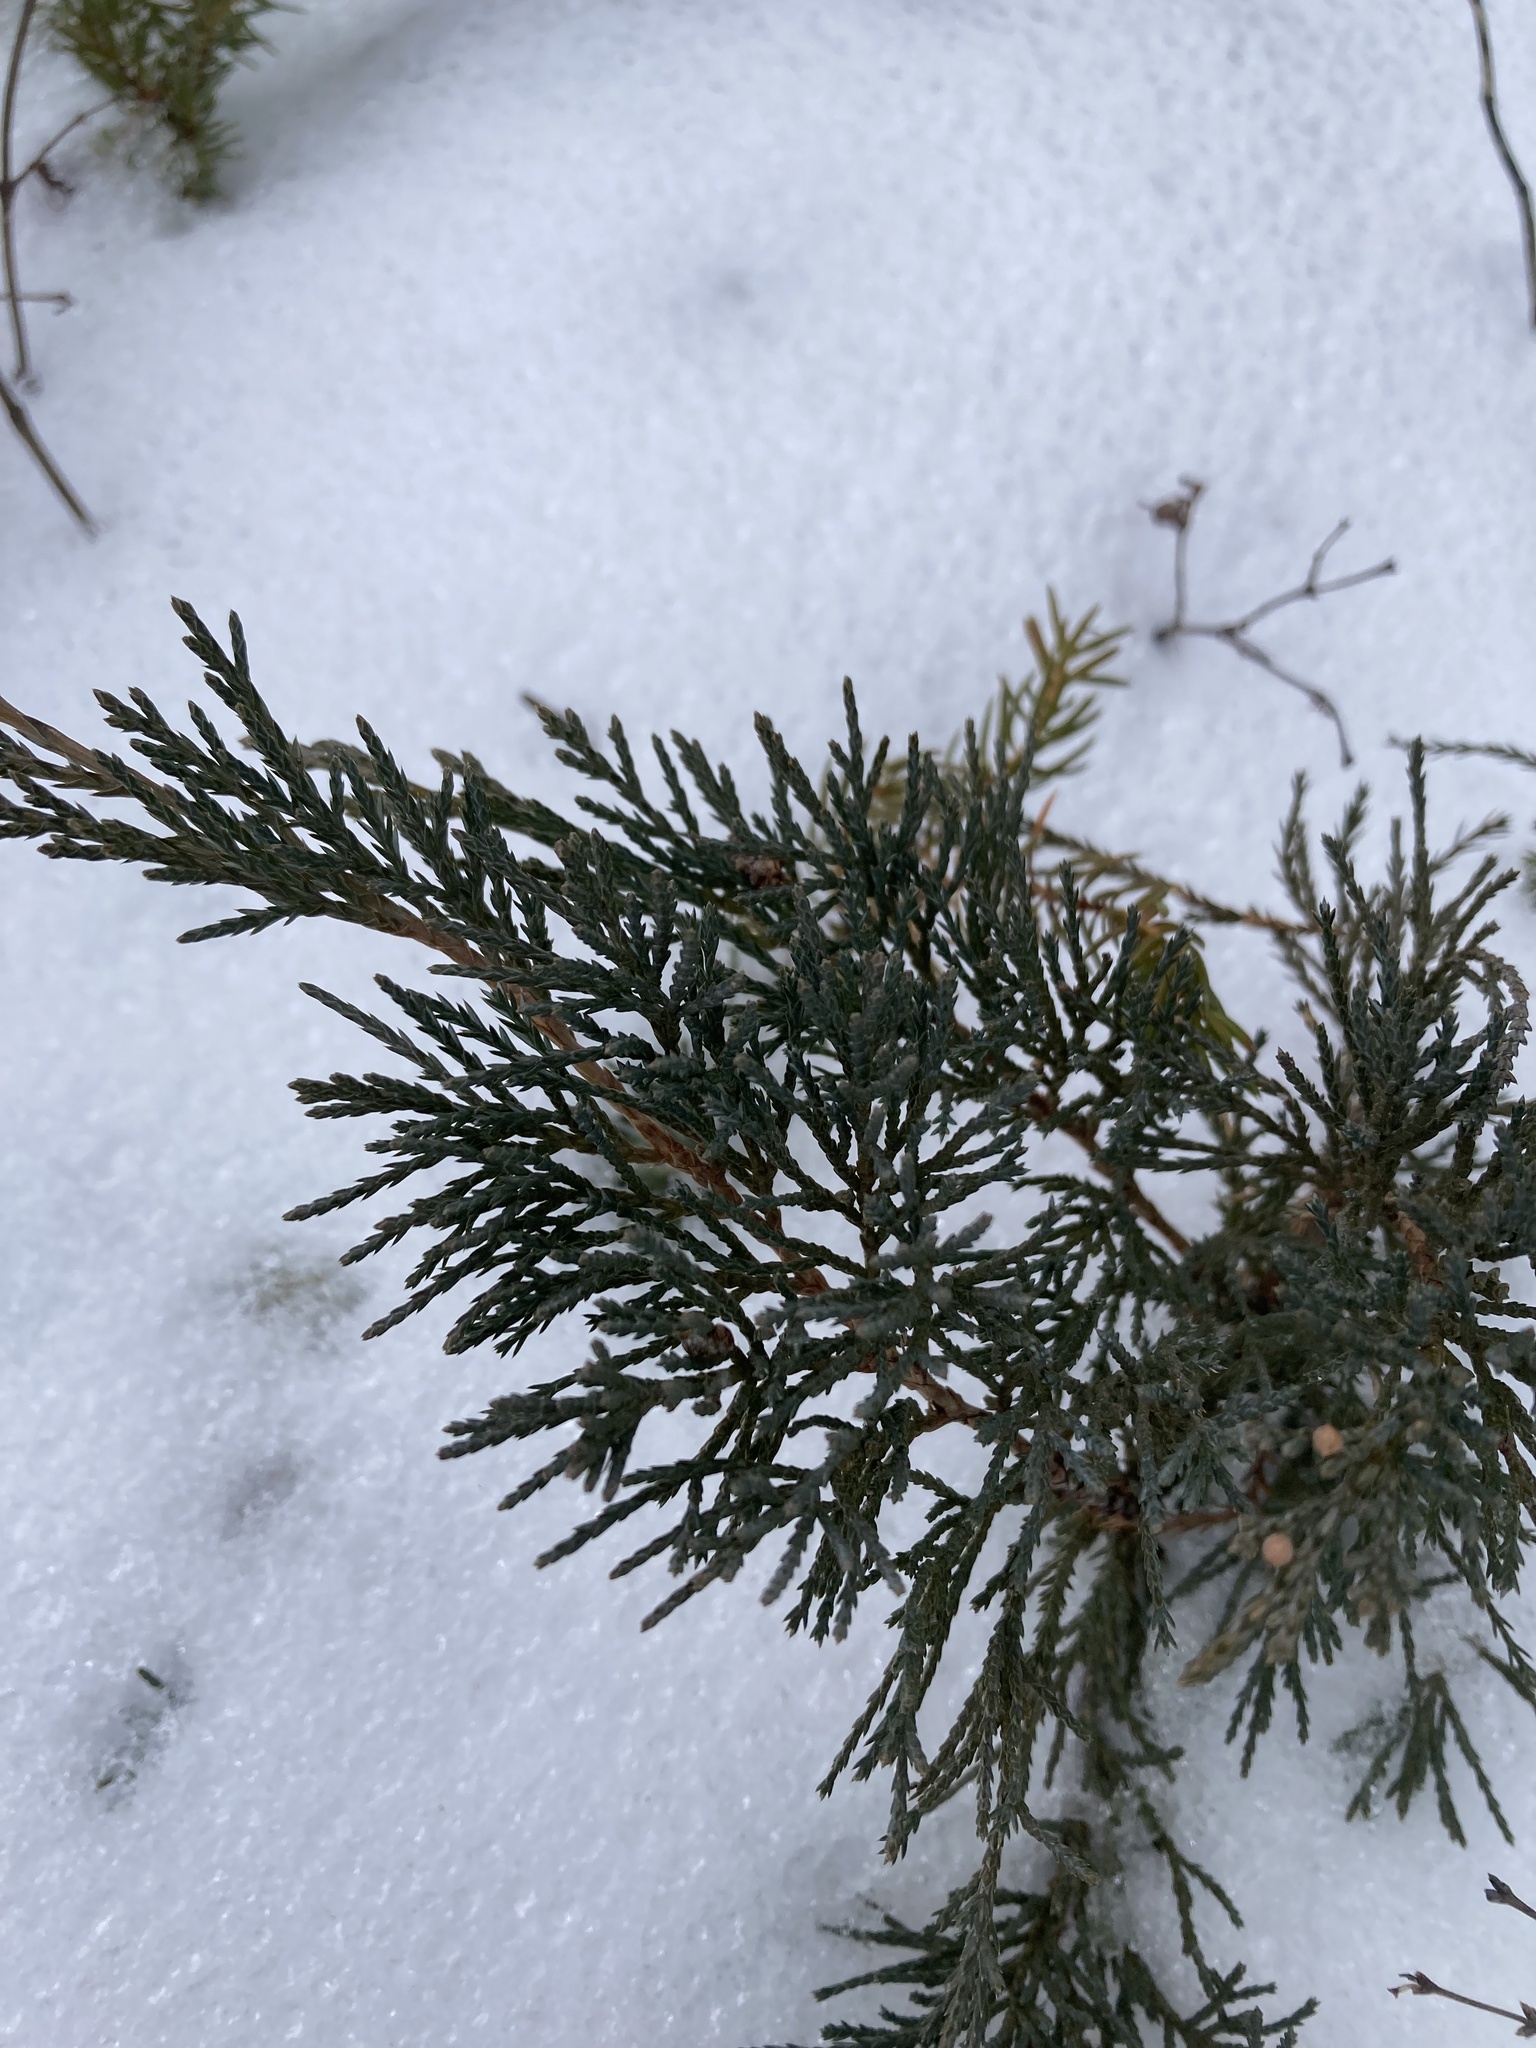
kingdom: Plantae
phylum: Tracheophyta
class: Pinopsida
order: Pinales
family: Cupressaceae
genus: Juniperus
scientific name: Juniperus horizontalis
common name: Creeping juniper
